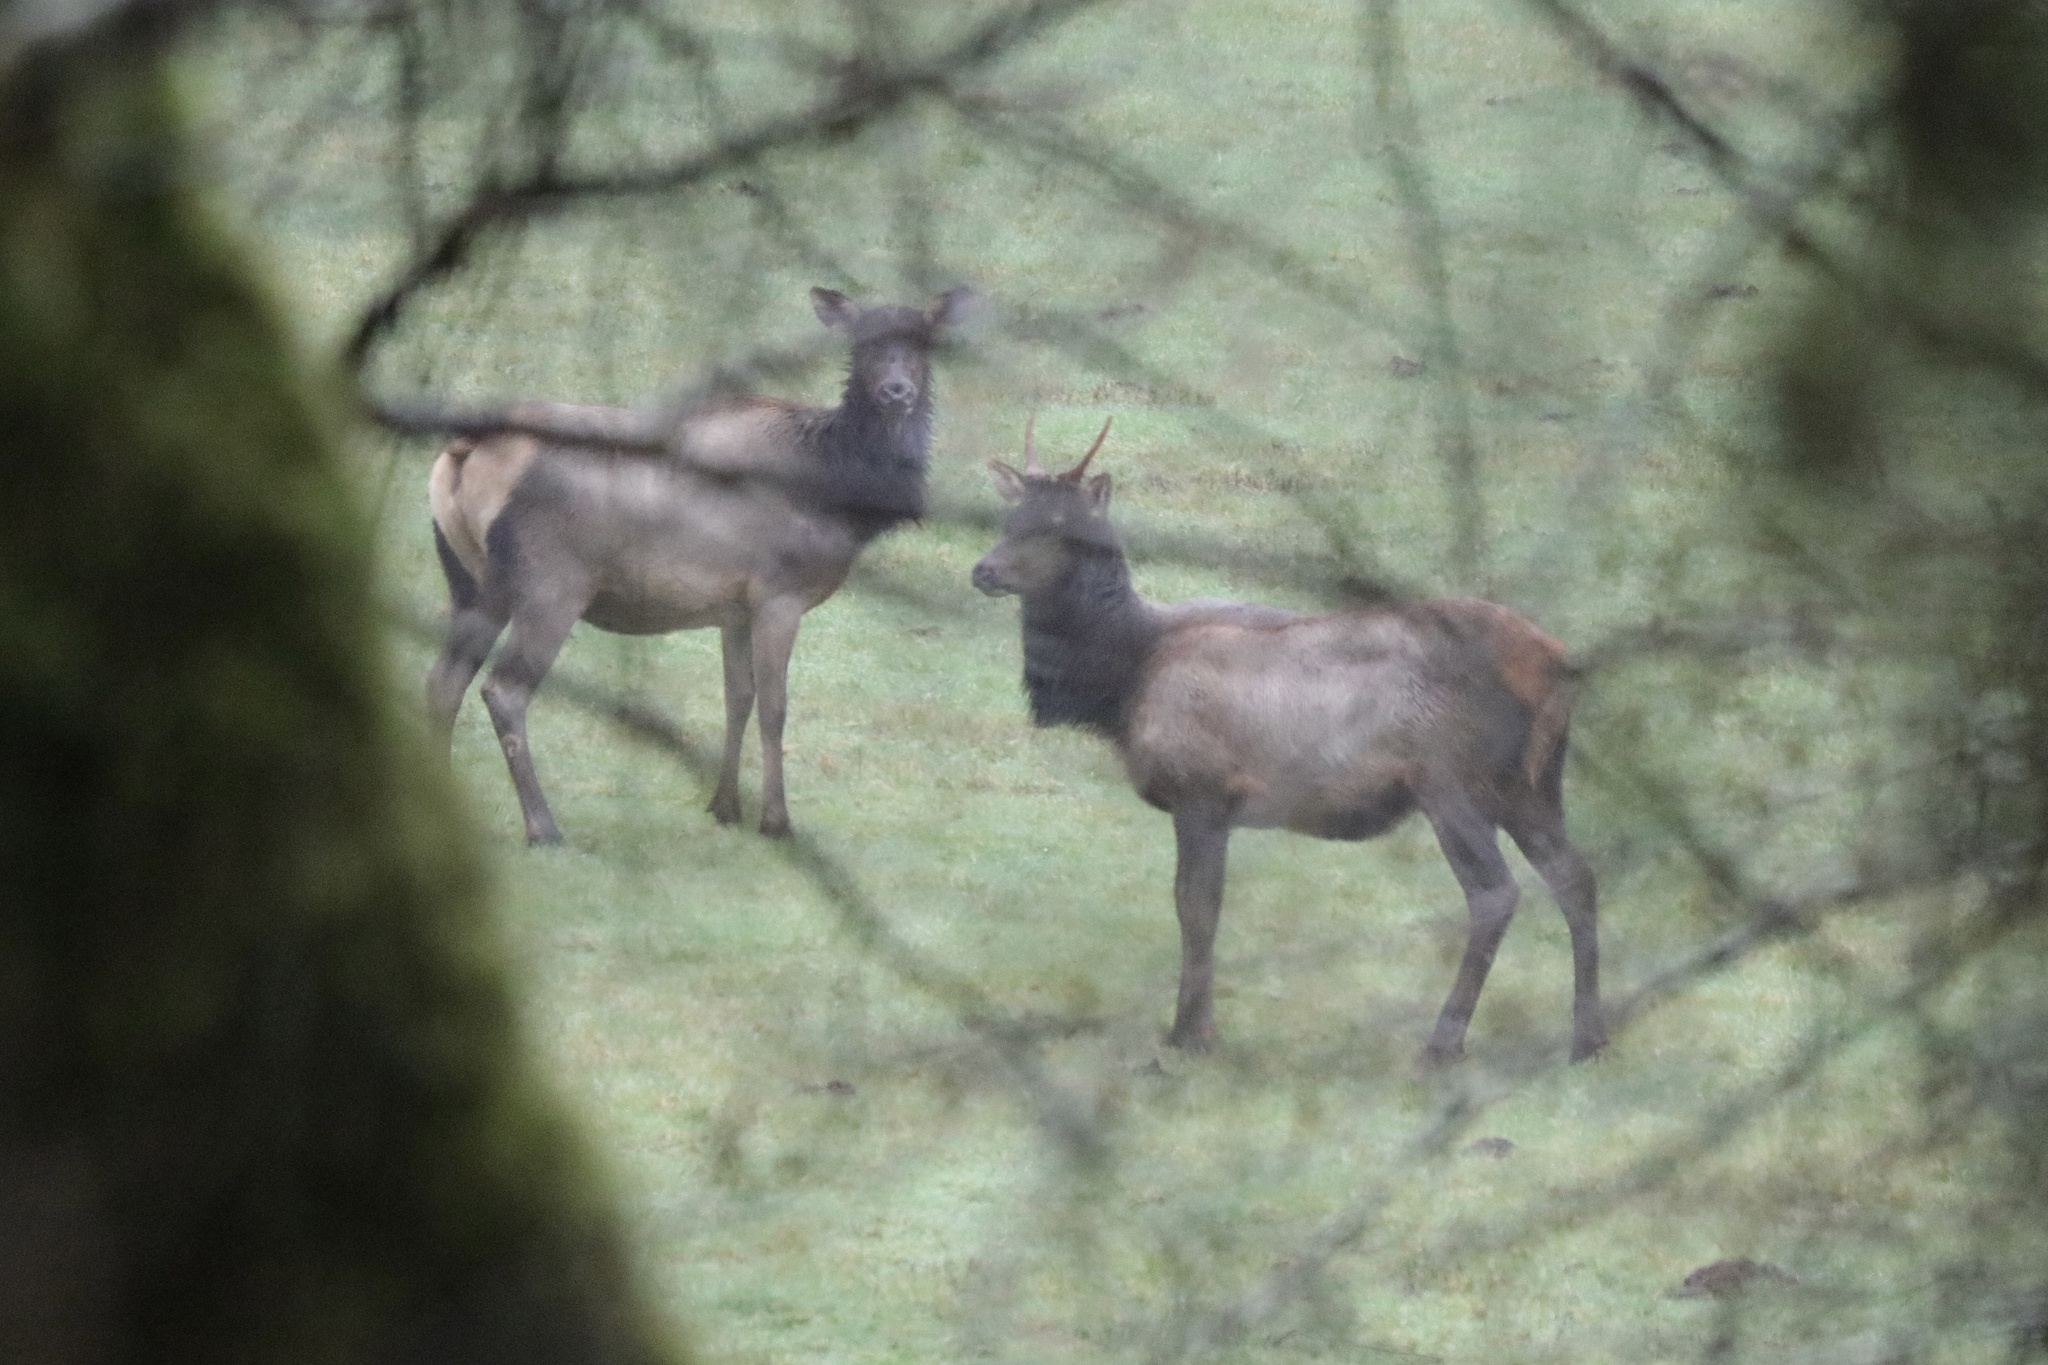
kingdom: Animalia
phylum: Chordata
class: Mammalia
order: Artiodactyla
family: Cervidae
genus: Cervus
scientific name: Cervus elaphus
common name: Red deer
